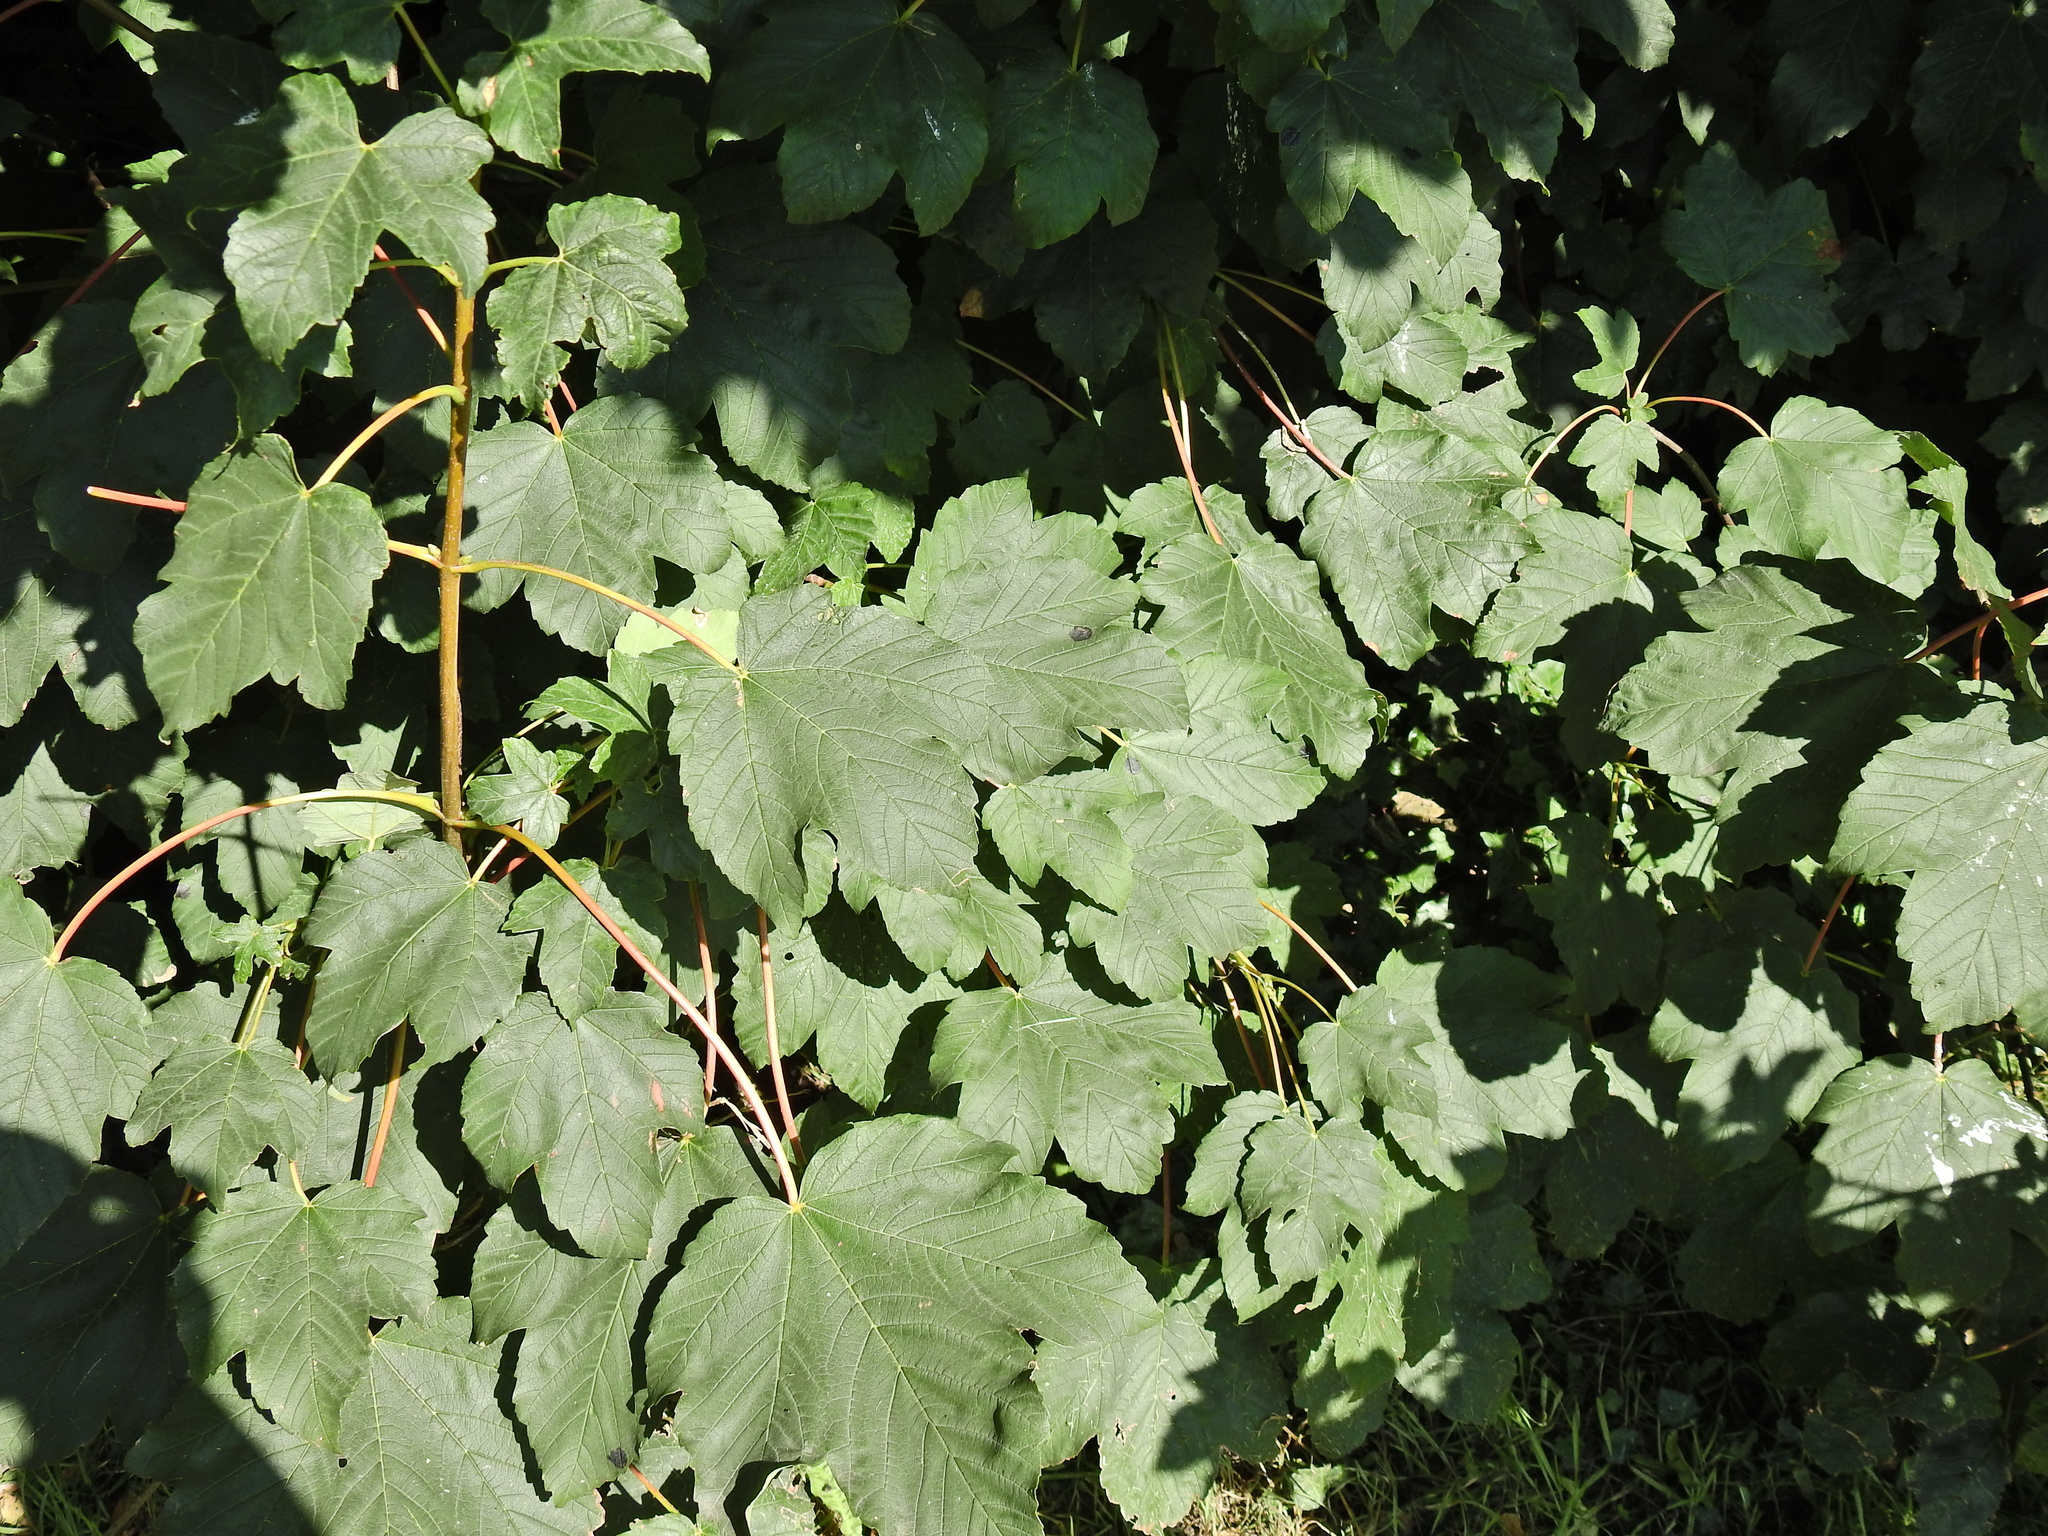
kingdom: Plantae
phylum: Tracheophyta
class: Magnoliopsida
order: Sapindales
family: Sapindaceae
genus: Acer
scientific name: Acer pseudoplatanus
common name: Sycamore
